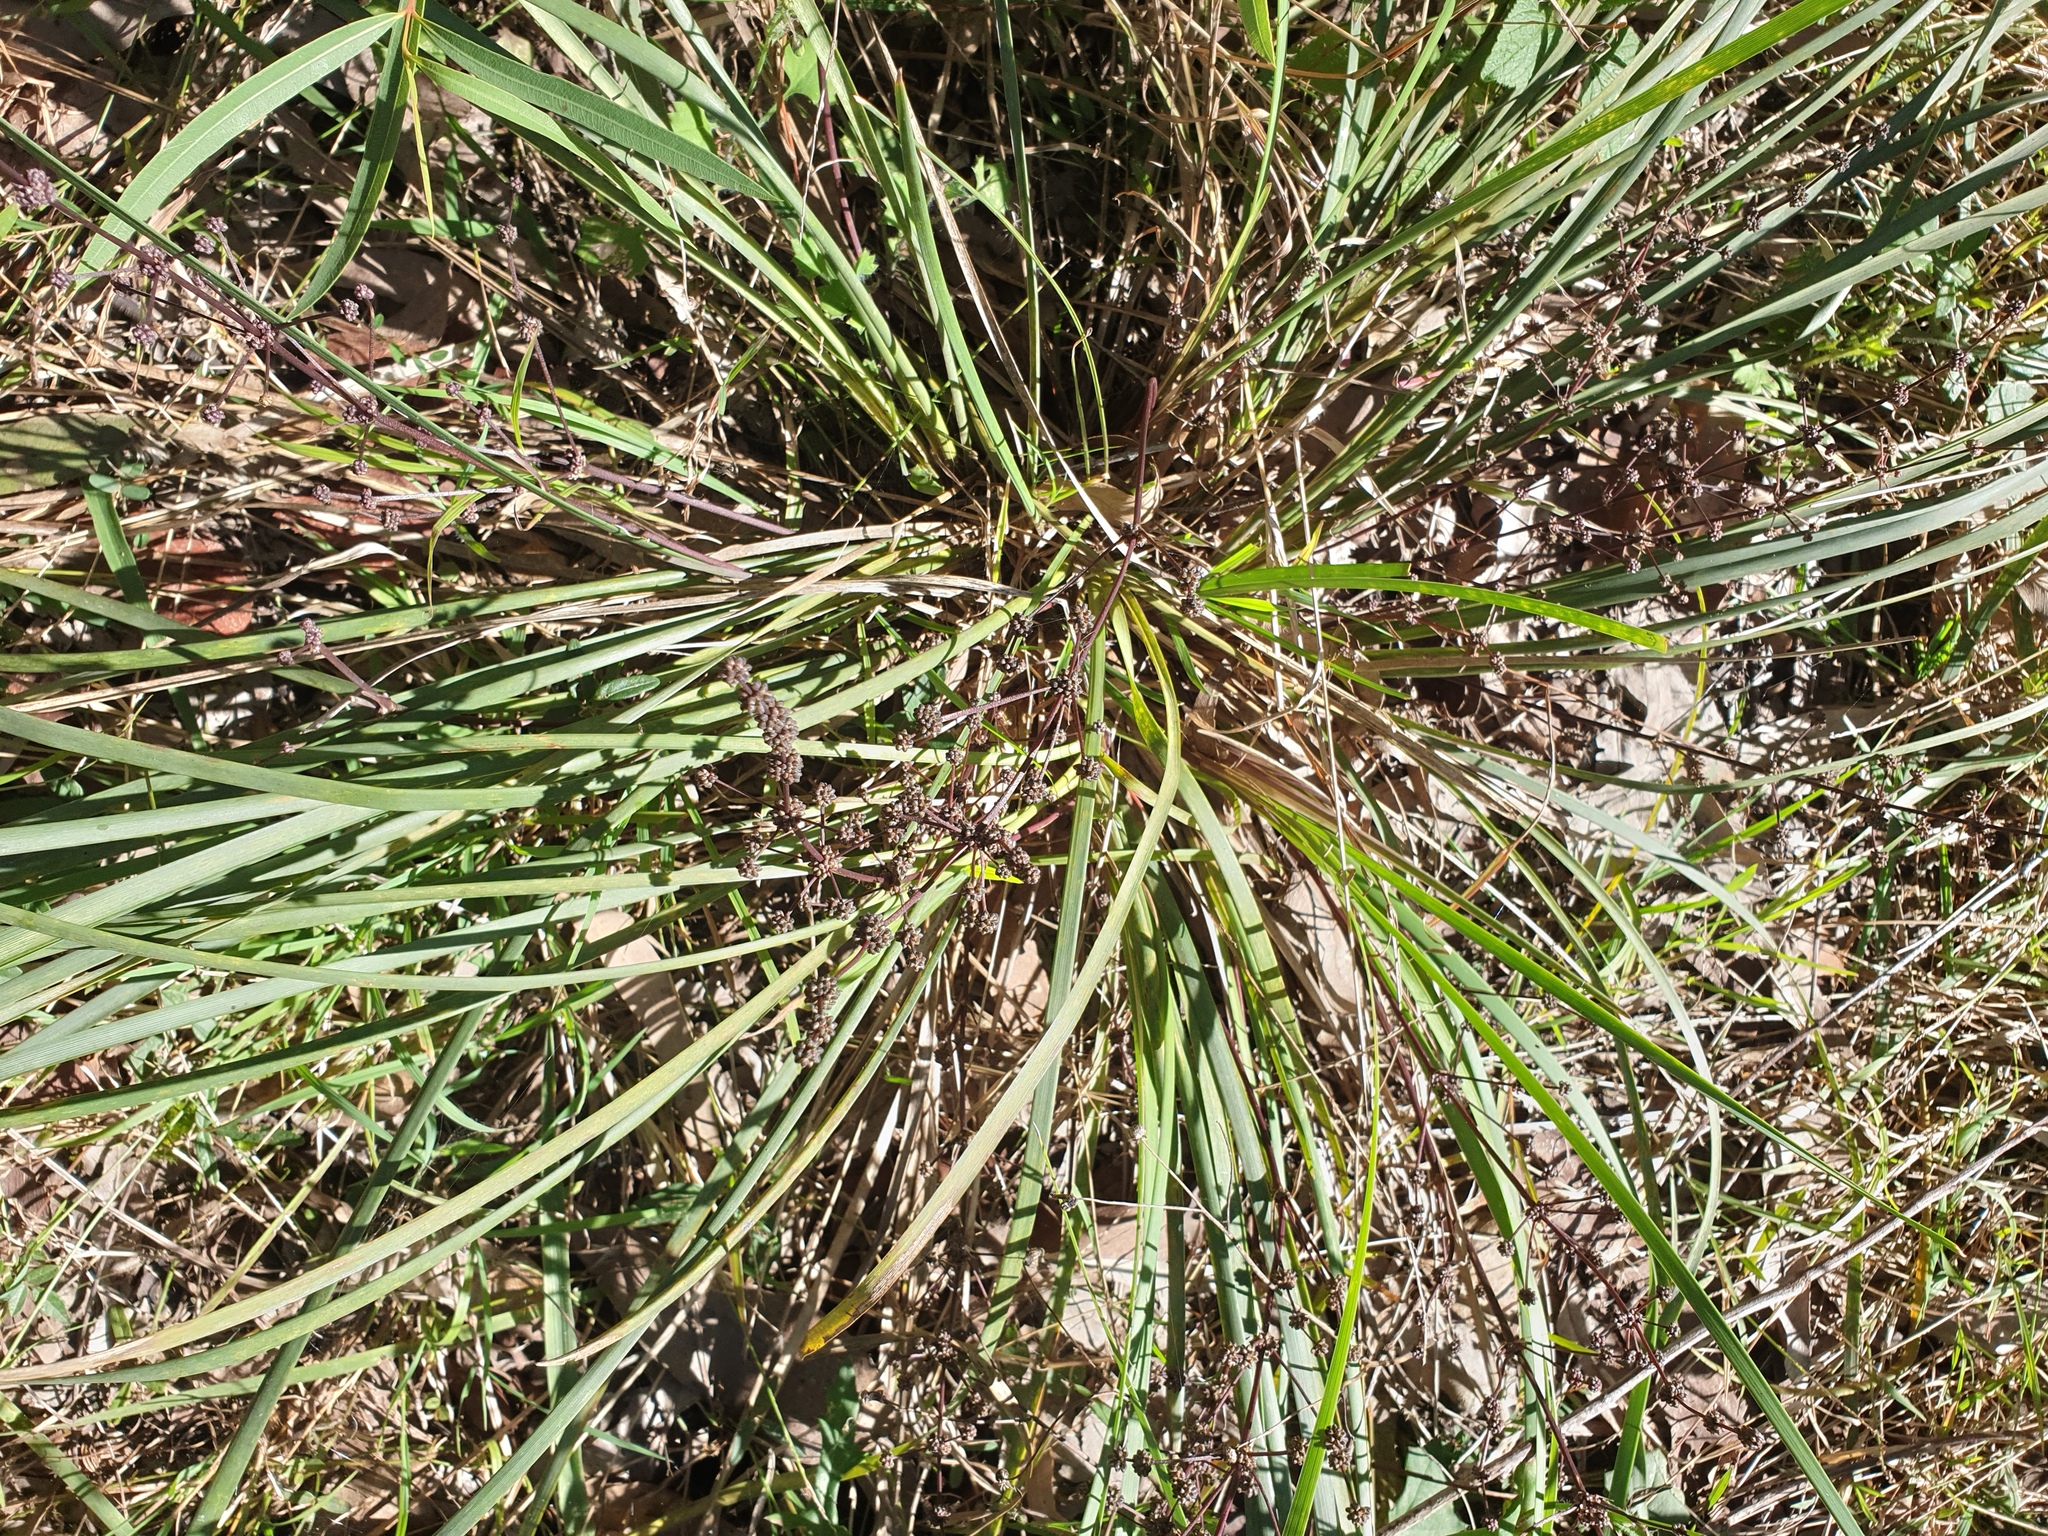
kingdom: Plantae
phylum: Tracheophyta
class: Liliopsida
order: Asparagales
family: Asparagaceae
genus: Lomandra
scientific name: Lomandra multiflora
